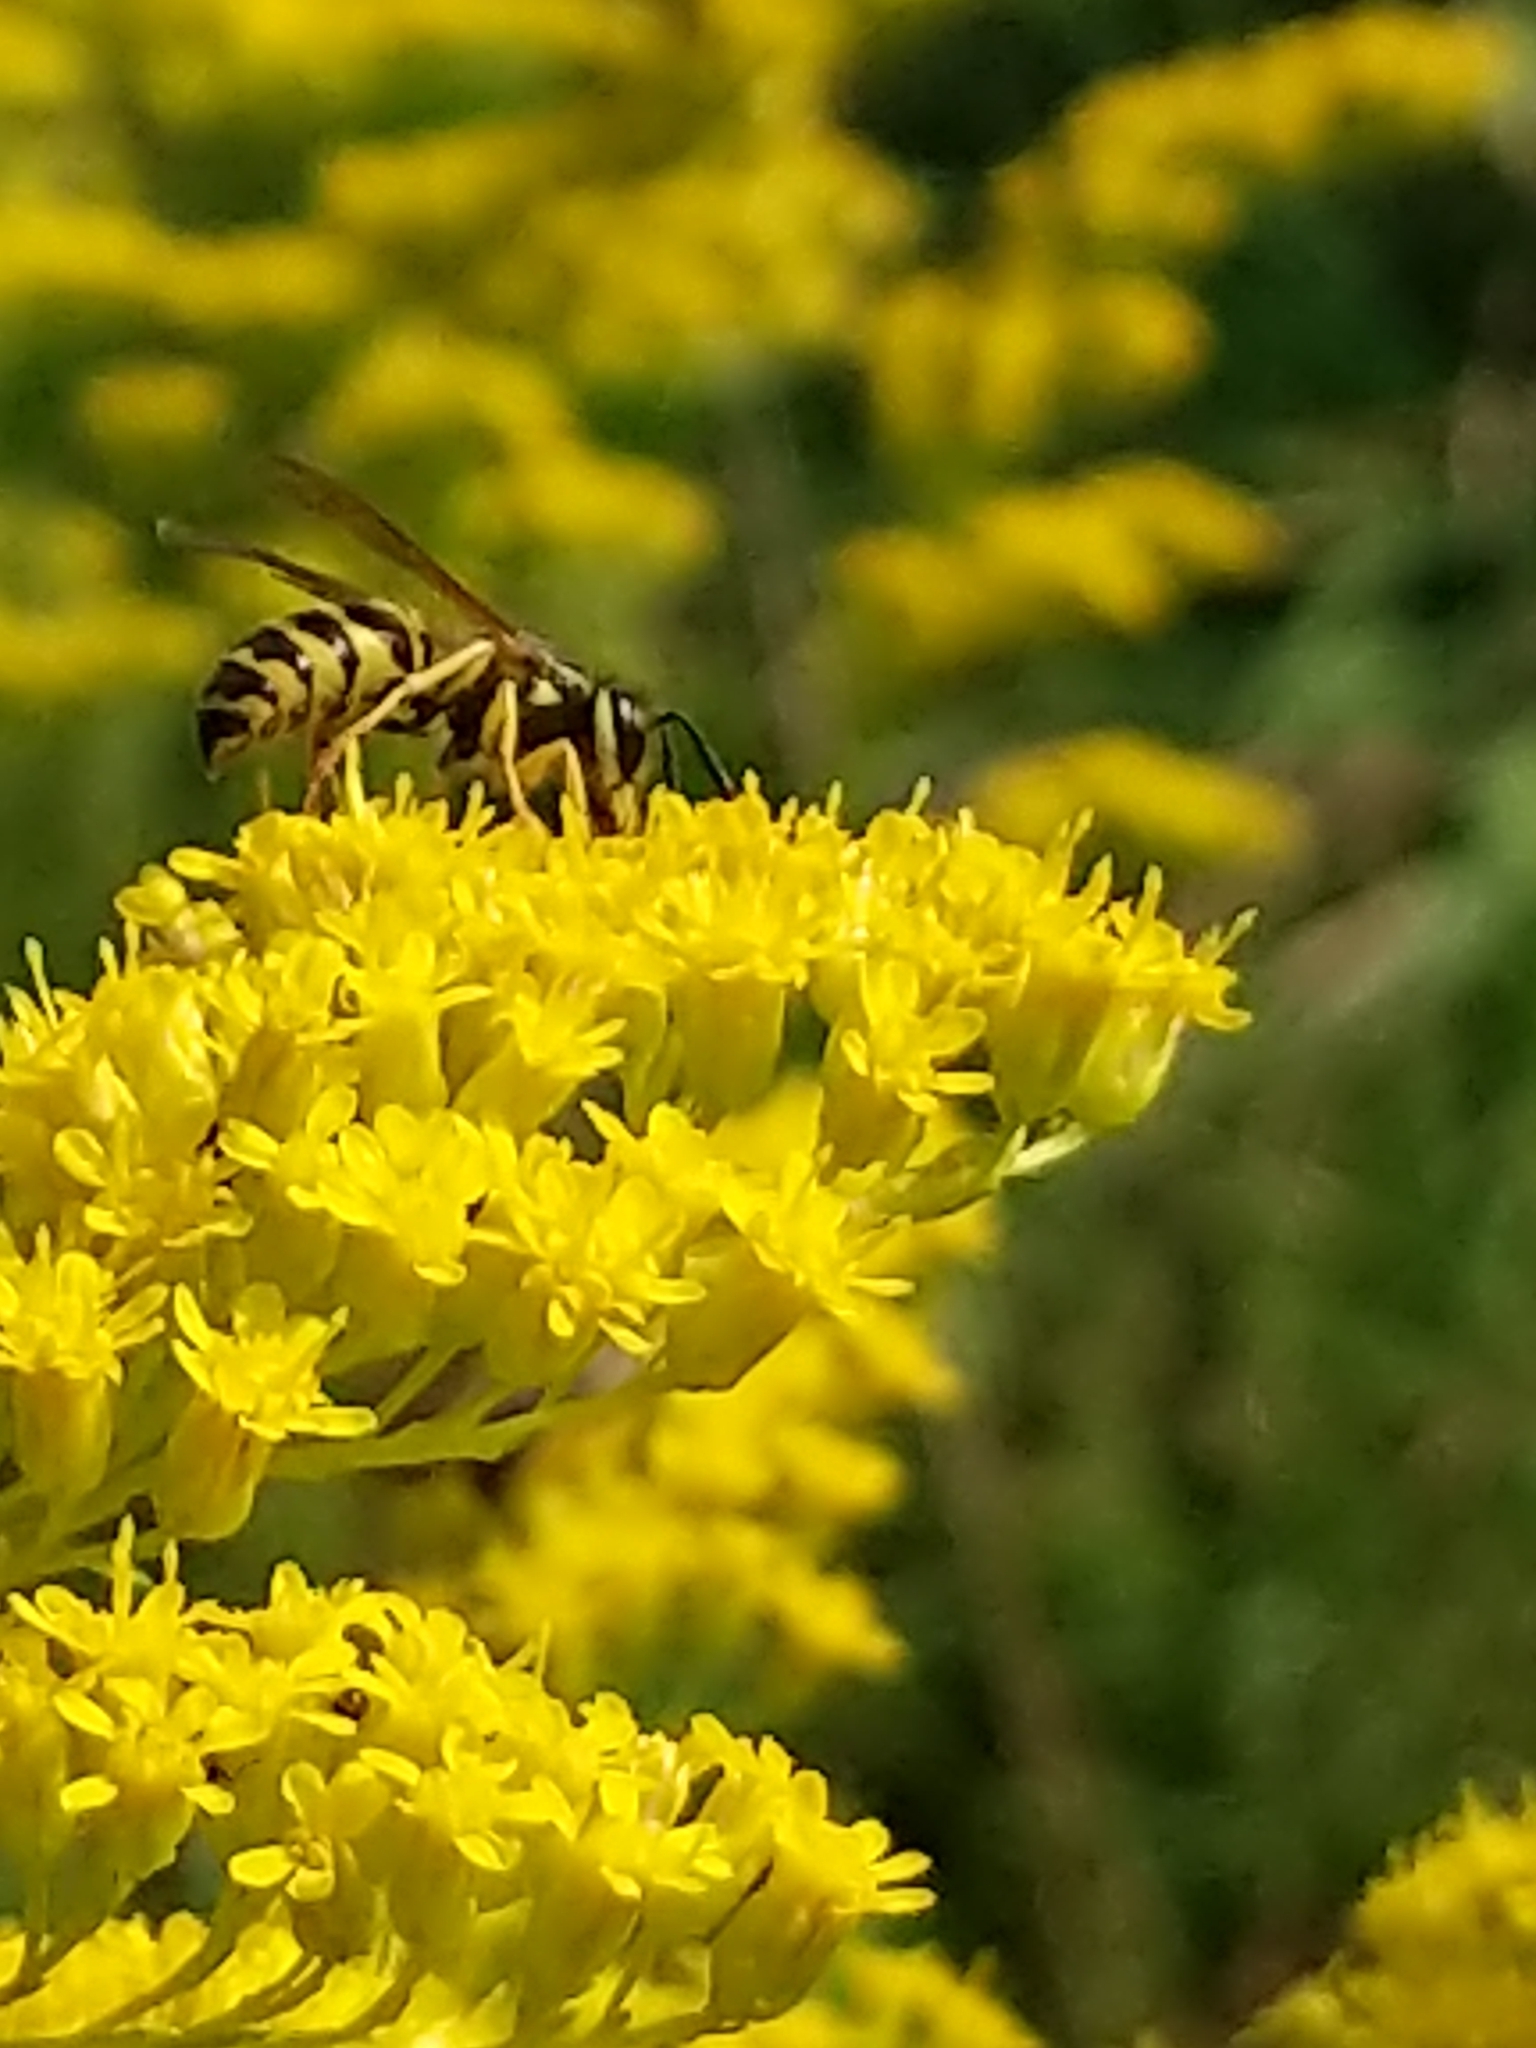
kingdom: Animalia
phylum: Arthropoda
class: Insecta
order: Hymenoptera
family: Vespidae
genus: Vespula
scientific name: Vespula maculifrons
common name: Eastern yellowjacket
